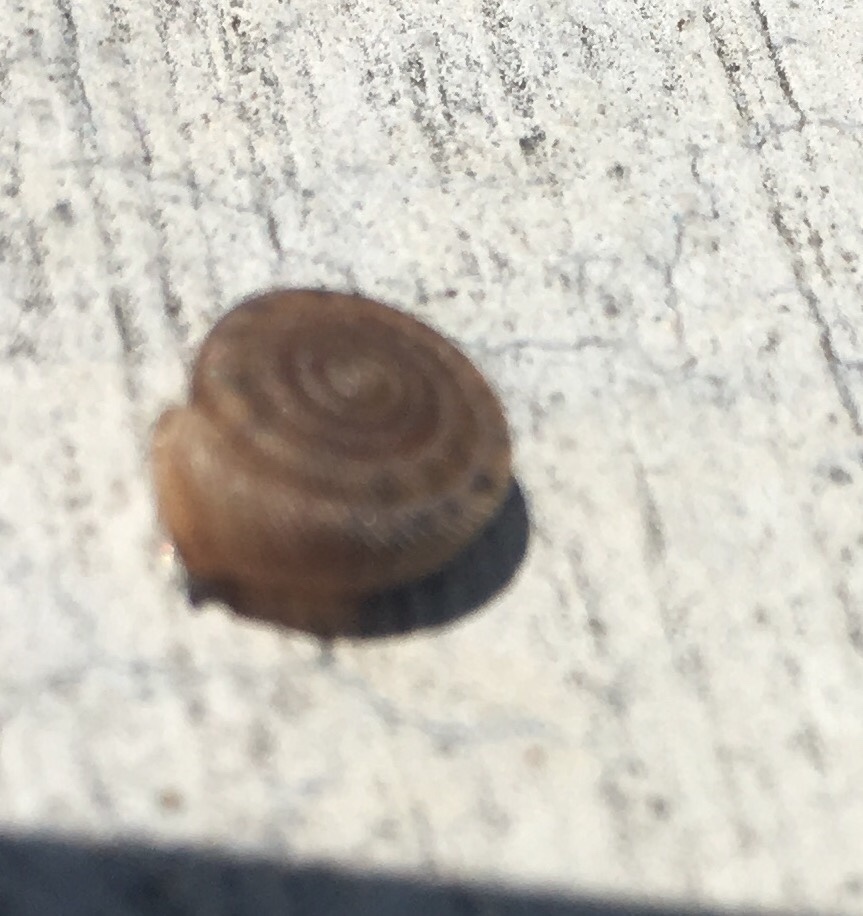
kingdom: Animalia
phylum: Mollusca
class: Gastropoda
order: Stylommatophora
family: Polygyridae
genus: Polygyra
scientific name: Polygyra cereolus
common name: Southern flatcone snail
